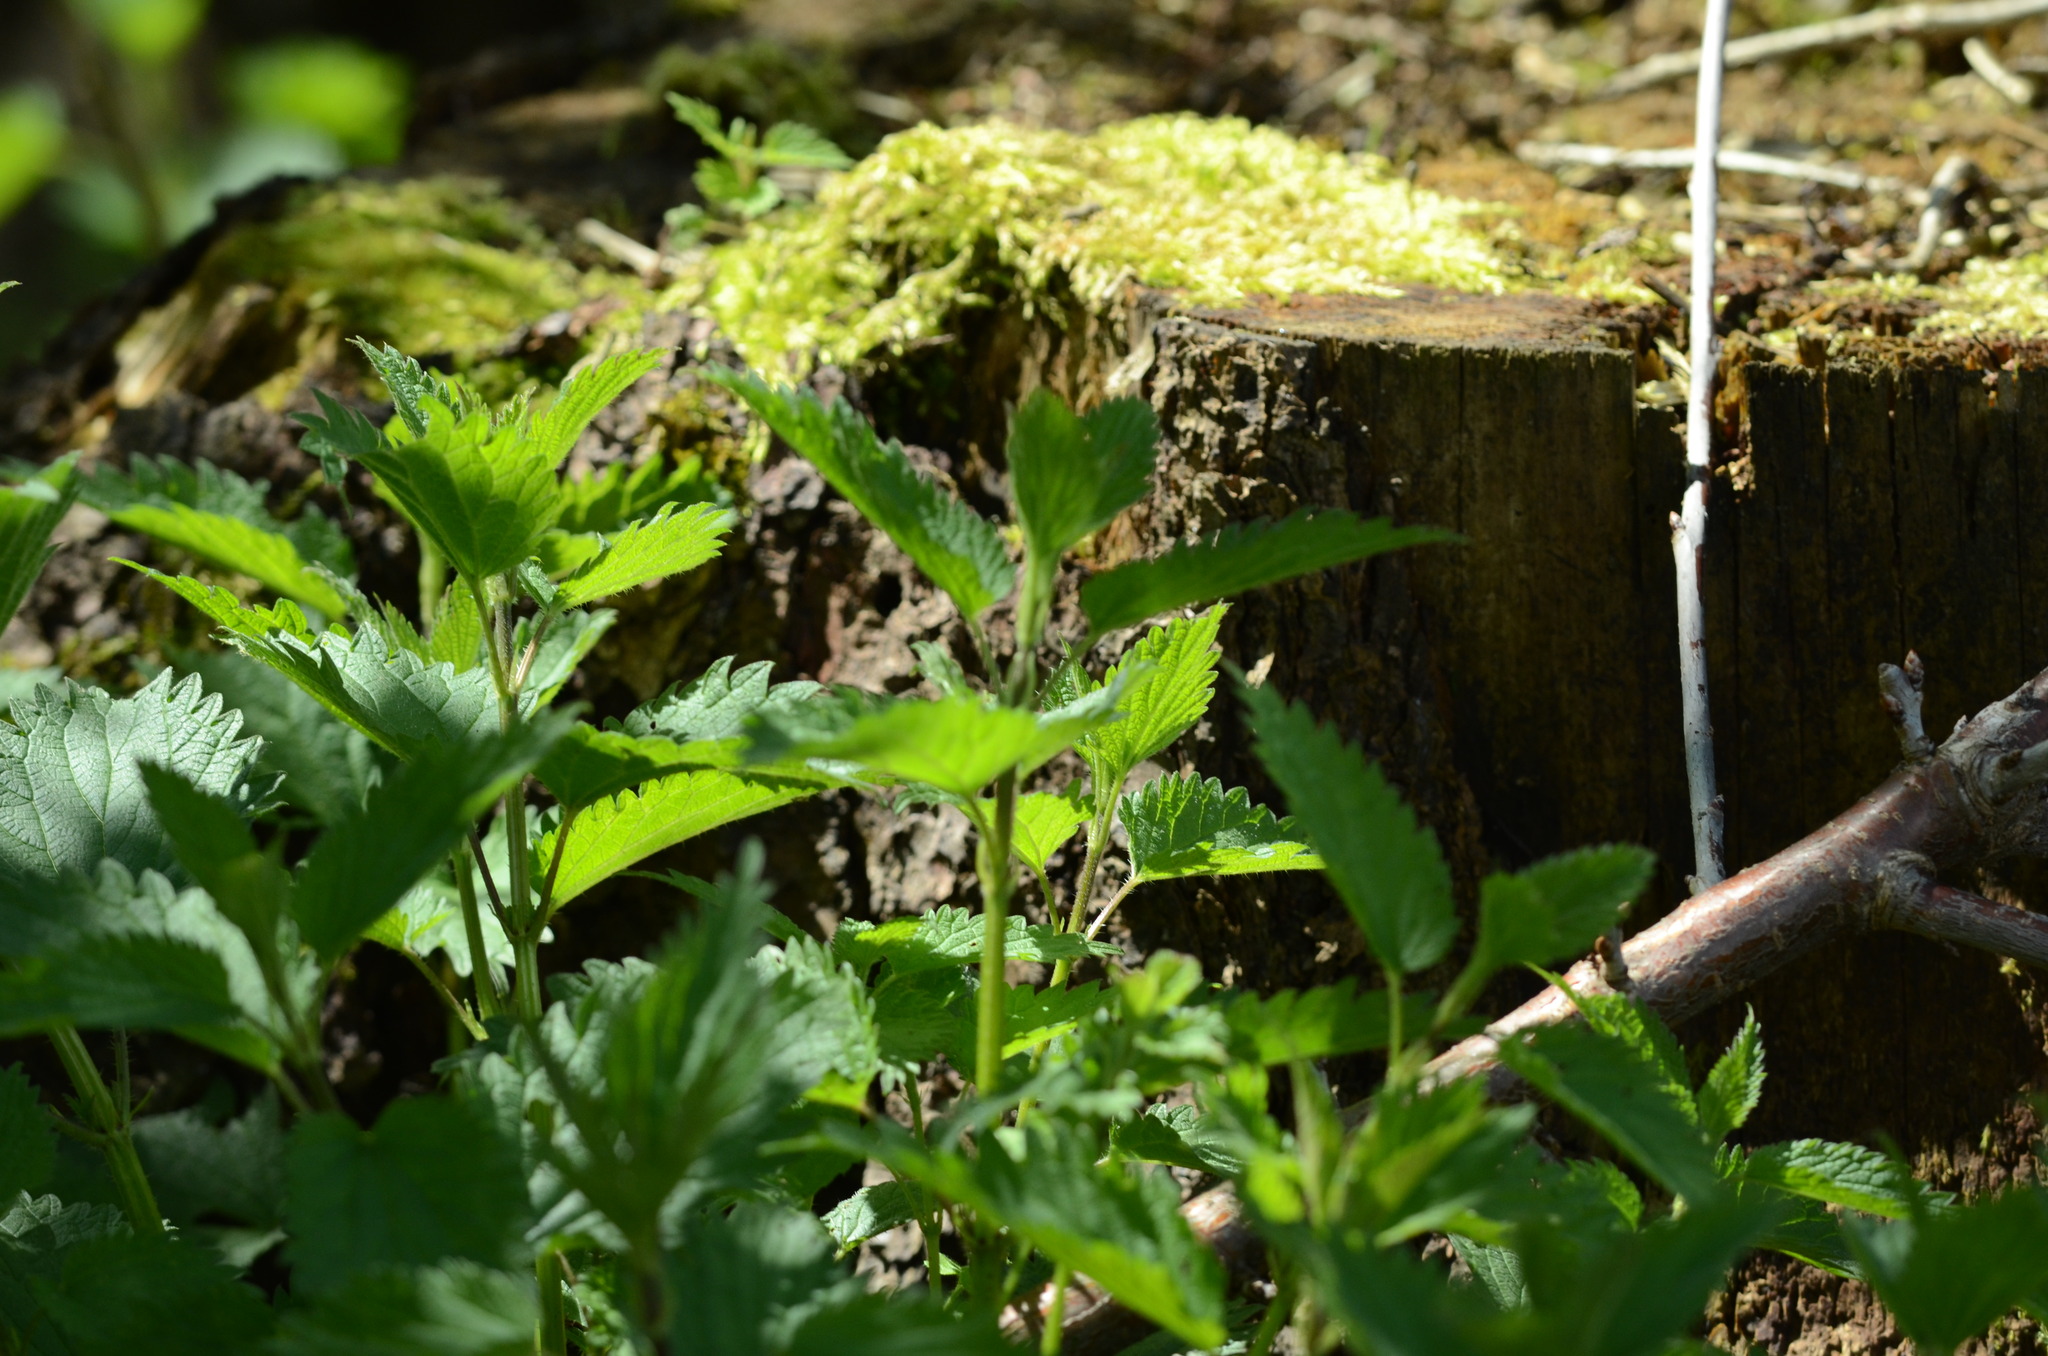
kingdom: Plantae
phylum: Tracheophyta
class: Magnoliopsida
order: Rosales
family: Urticaceae
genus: Urtica
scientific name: Urtica dioica
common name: Common nettle
